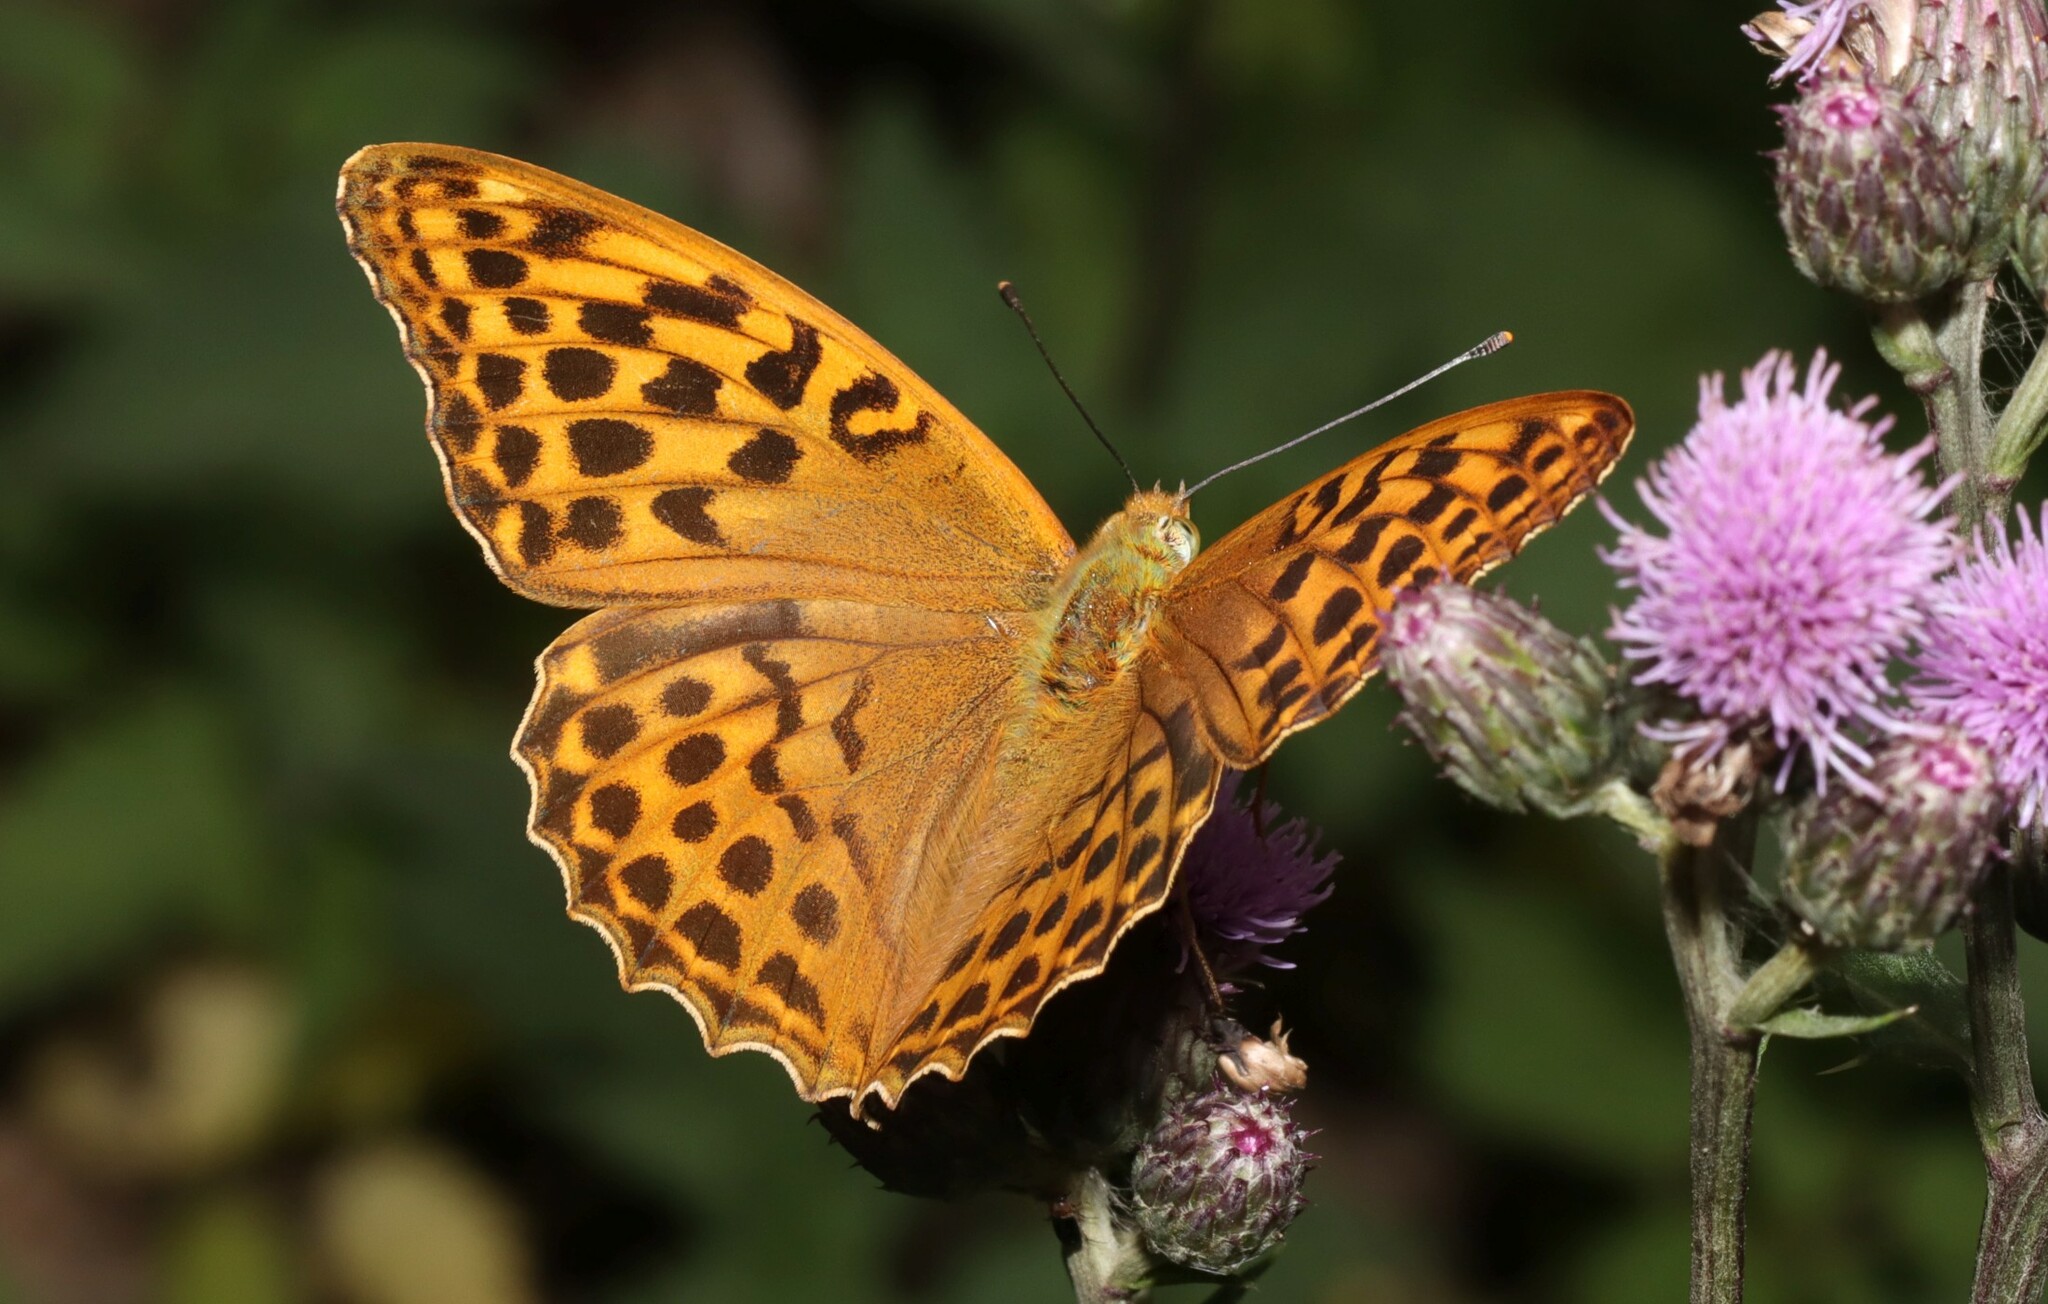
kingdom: Animalia
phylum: Arthropoda
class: Insecta
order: Lepidoptera
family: Nymphalidae
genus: Argynnis
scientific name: Argynnis paphia
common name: Silver-washed fritillary
